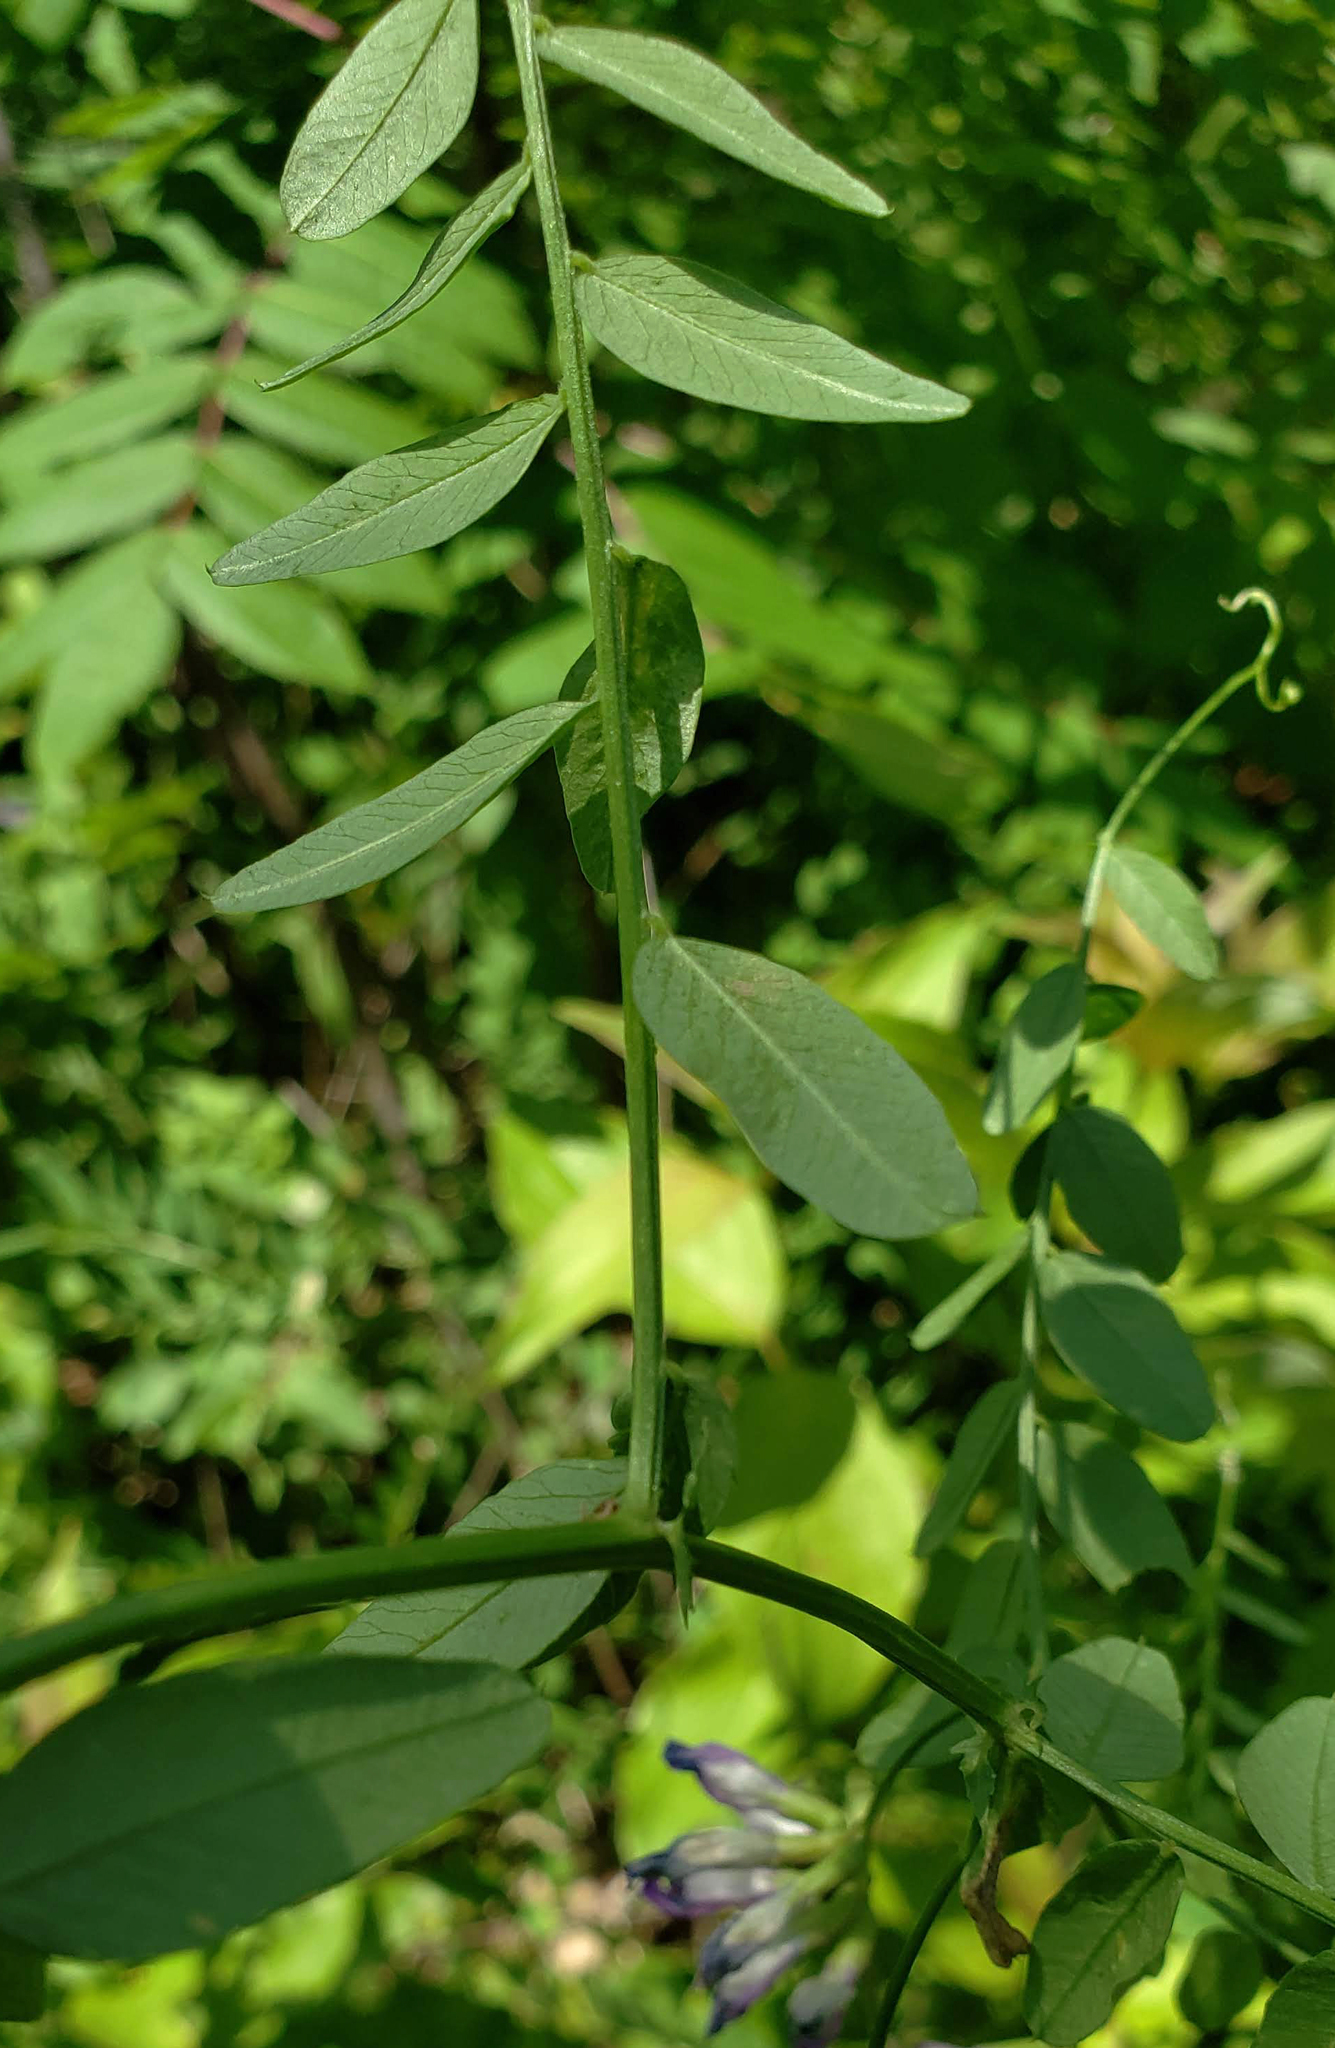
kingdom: Plantae
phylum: Tracheophyta
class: Magnoliopsida
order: Fabales
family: Fabaceae
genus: Vicia
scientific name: Vicia americana
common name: American vetch
